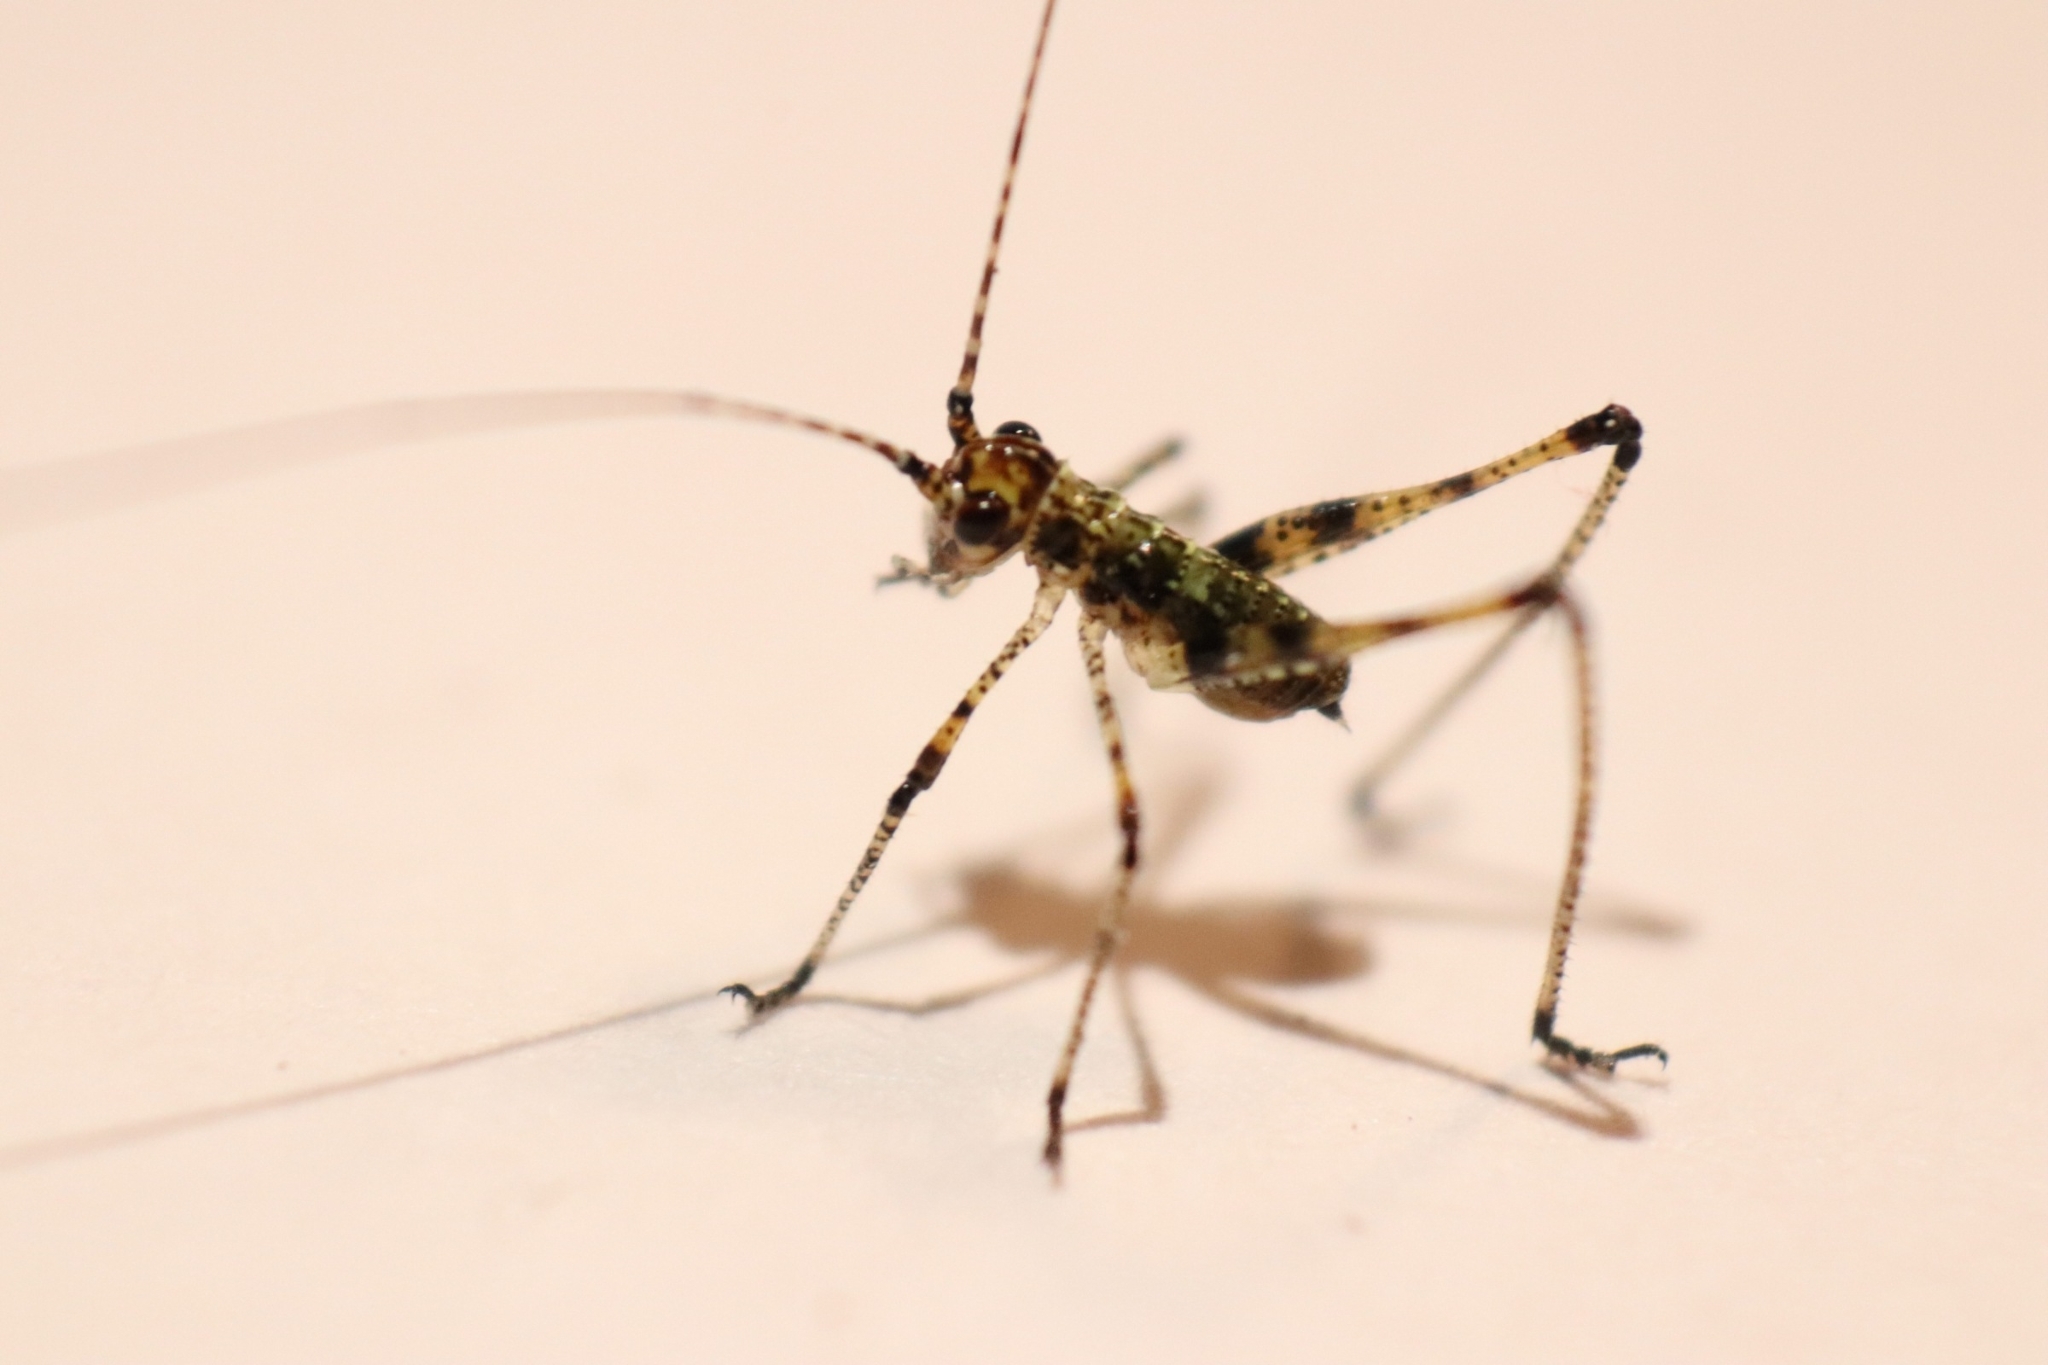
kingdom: Animalia
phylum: Arthropoda
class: Insecta
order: Orthoptera
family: Tettigoniidae
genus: Phaneroptera
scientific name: Phaneroptera nana
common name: Southern sickle bush-cricket
